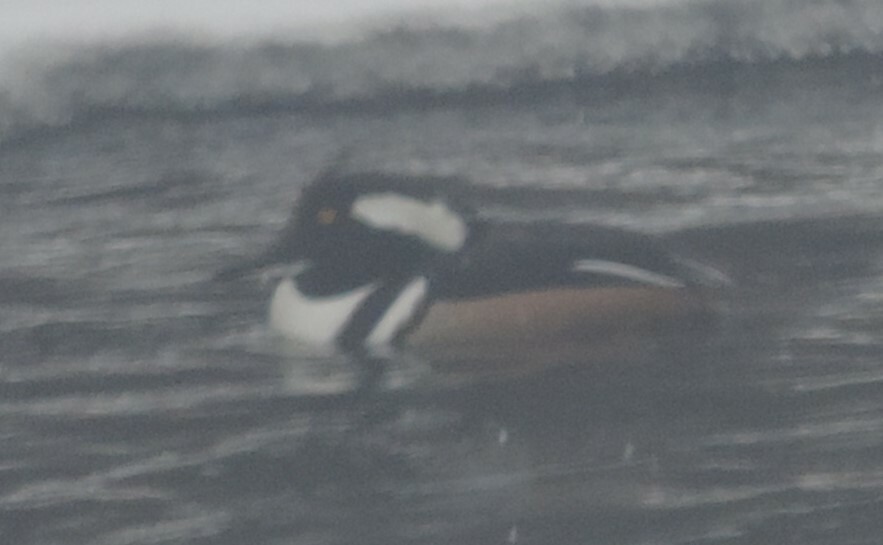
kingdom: Animalia
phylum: Chordata
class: Aves
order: Anseriformes
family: Anatidae
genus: Lophodytes
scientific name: Lophodytes cucullatus
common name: Hooded merganser
